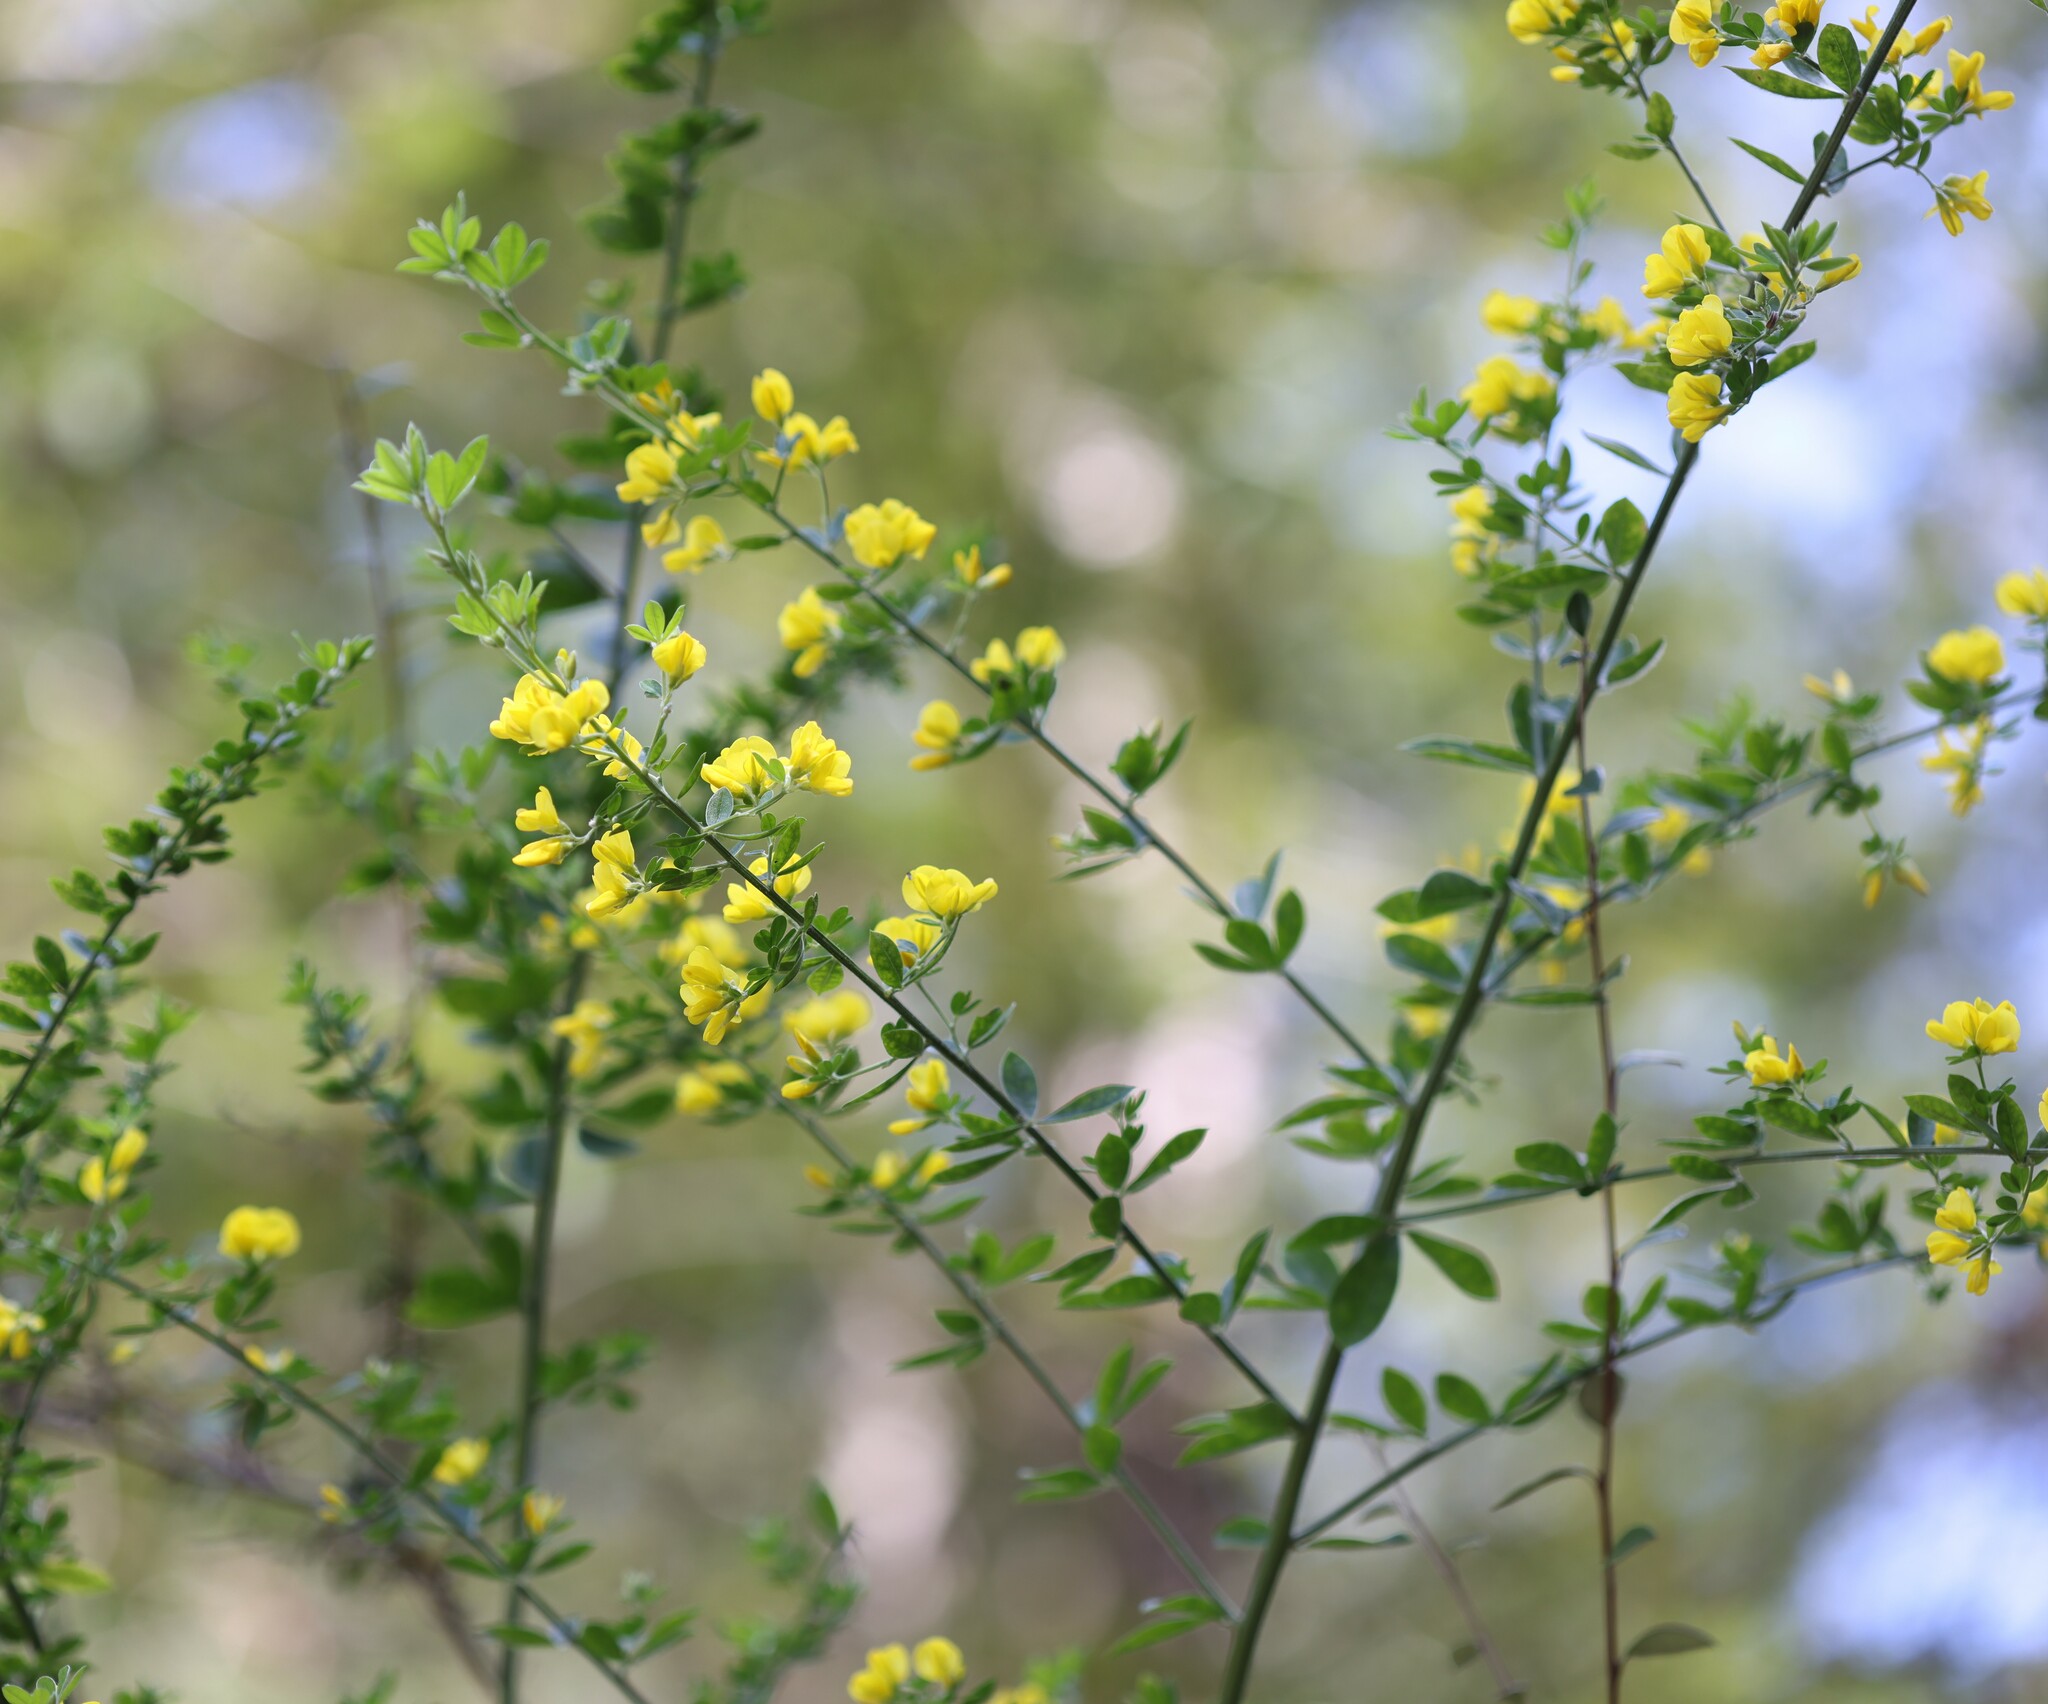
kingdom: Plantae
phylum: Tracheophyta
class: Magnoliopsida
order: Fabales
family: Fabaceae
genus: Genista
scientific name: Genista monspessulana
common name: Montpellier broom
